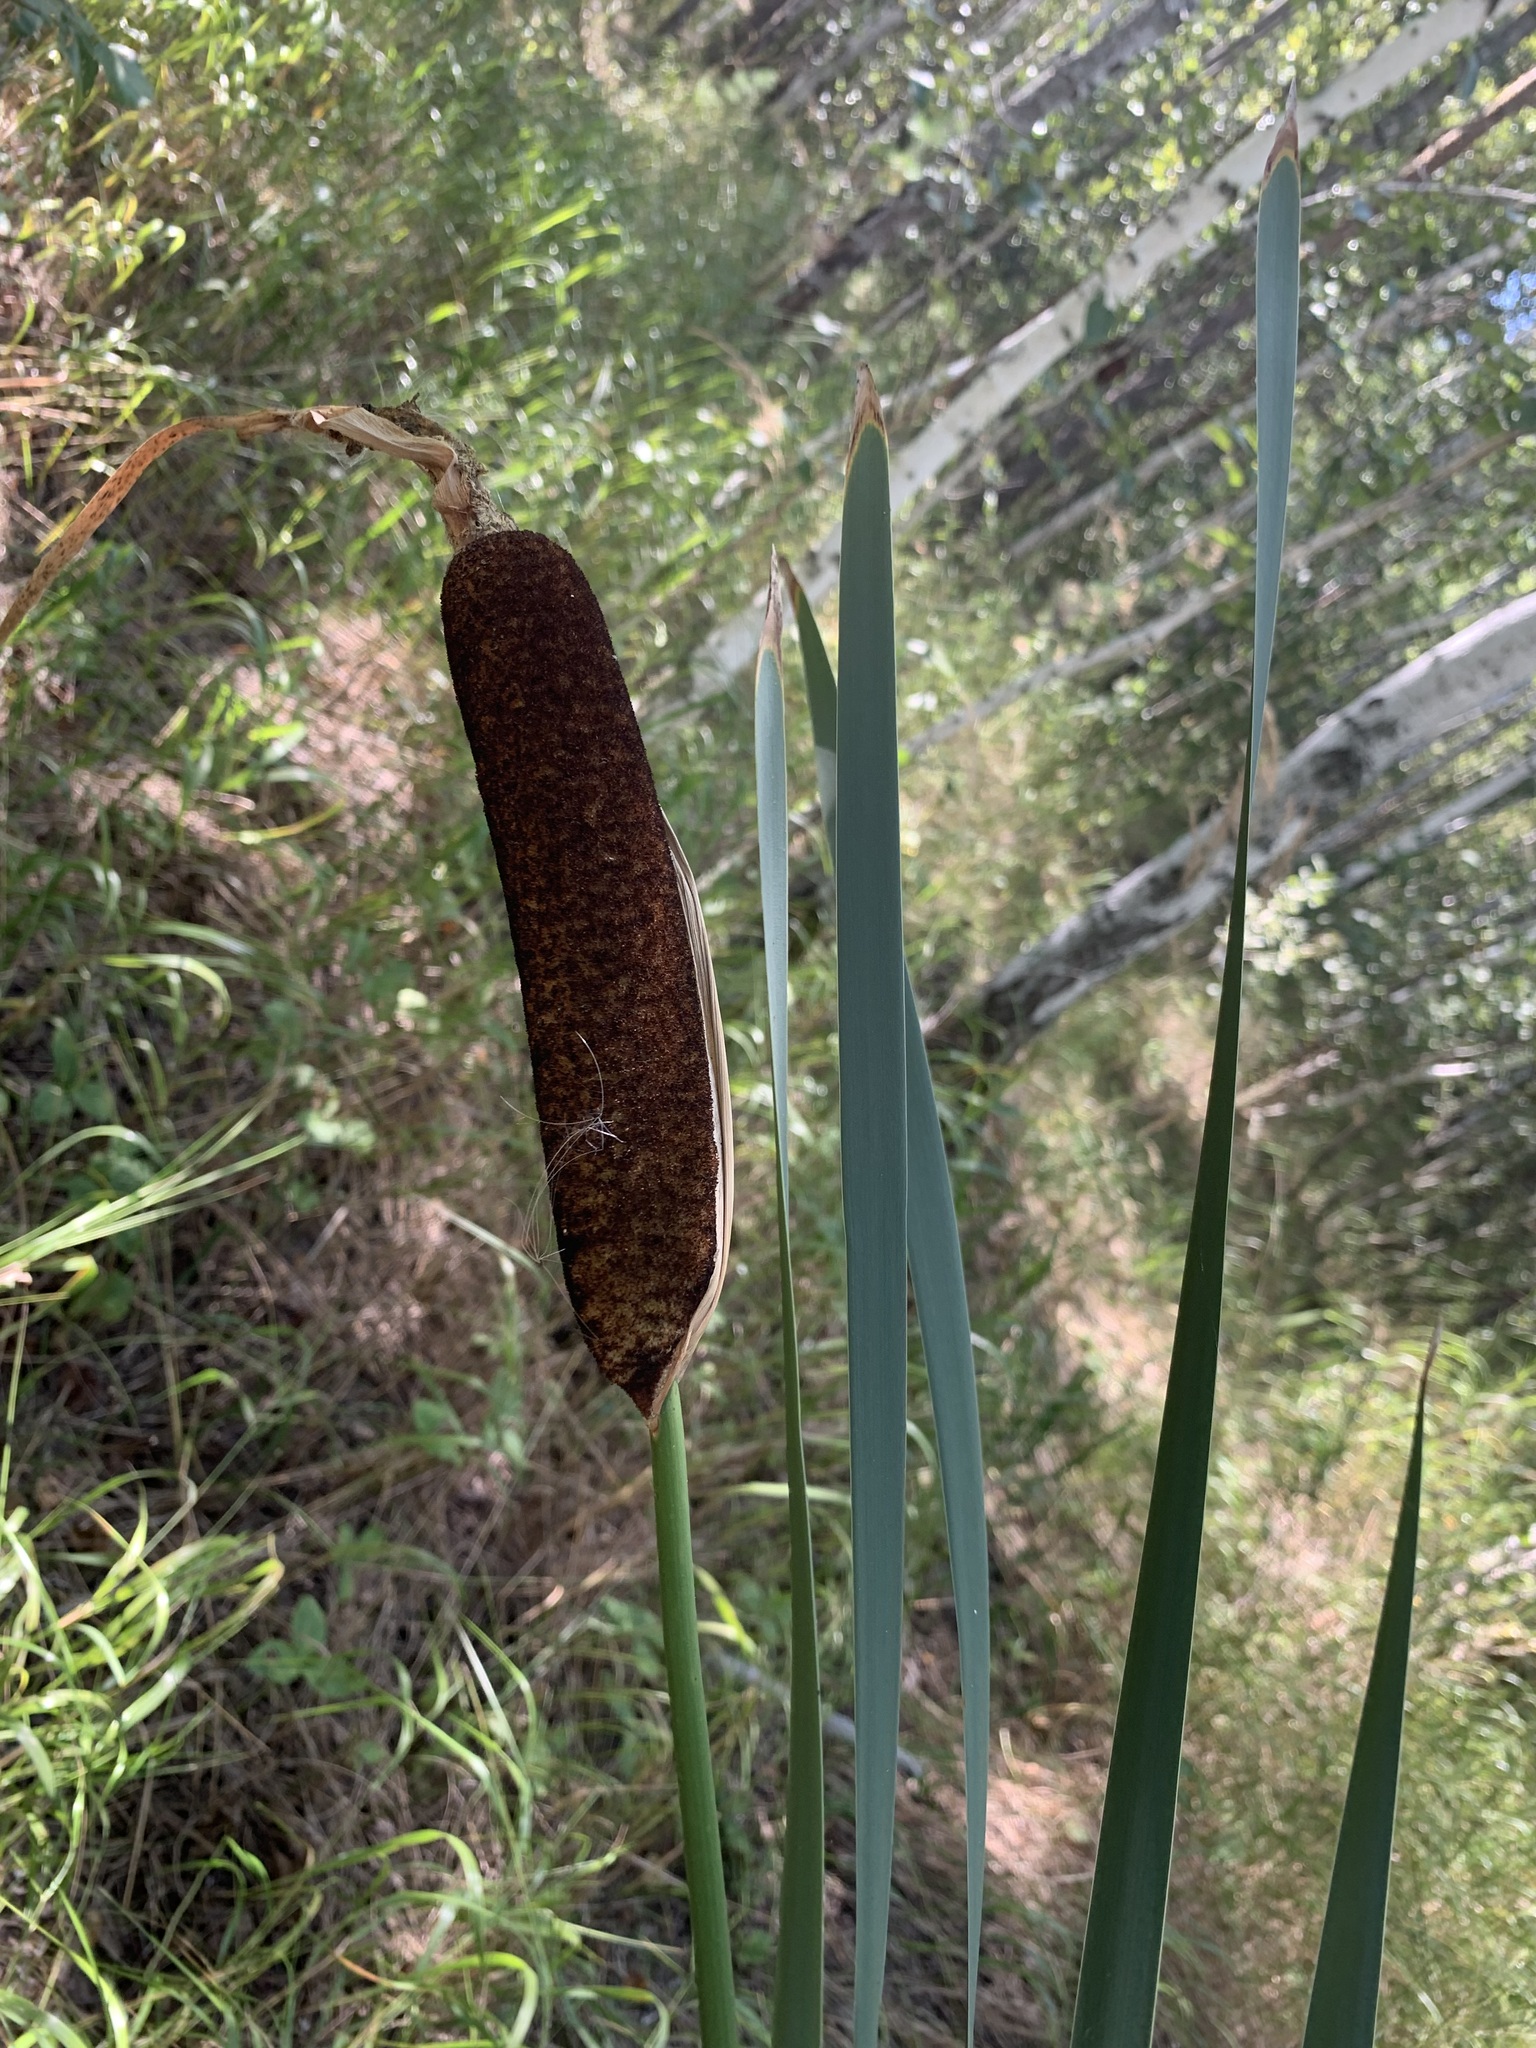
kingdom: Plantae
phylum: Tracheophyta
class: Liliopsida
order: Poales
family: Typhaceae
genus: Typha
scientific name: Typha latifolia
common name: Broadleaf cattail
